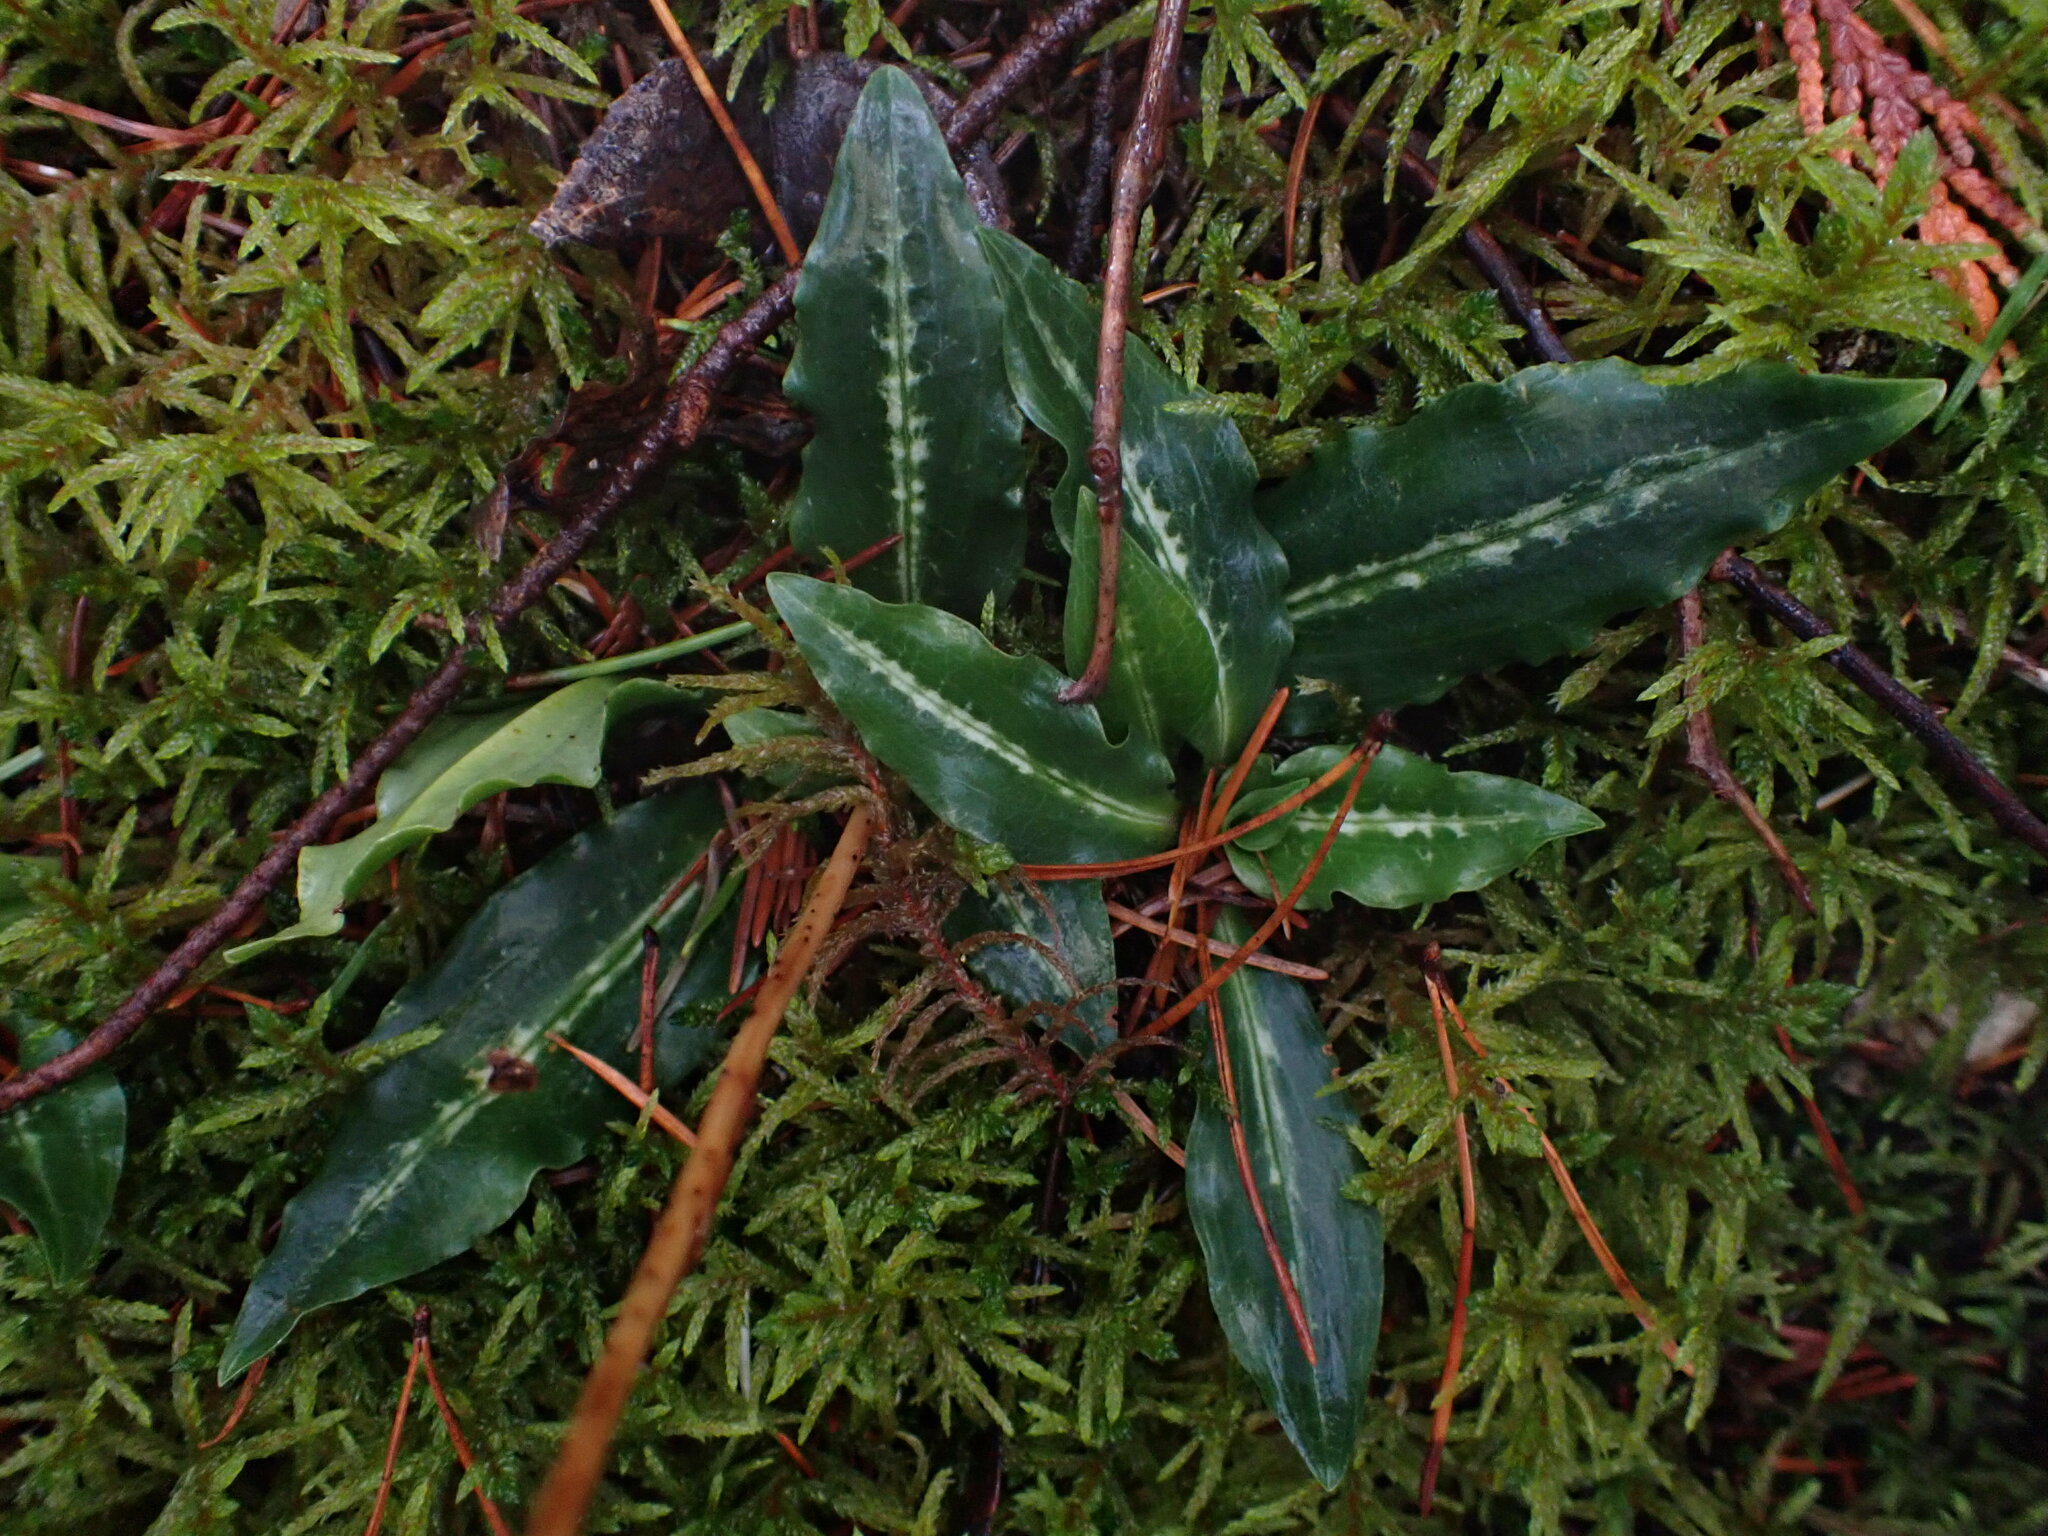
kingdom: Plantae
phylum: Tracheophyta
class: Liliopsida
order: Asparagales
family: Orchidaceae
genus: Goodyera
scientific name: Goodyera oblongifolia
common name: Giant rattlesnake-plantain
